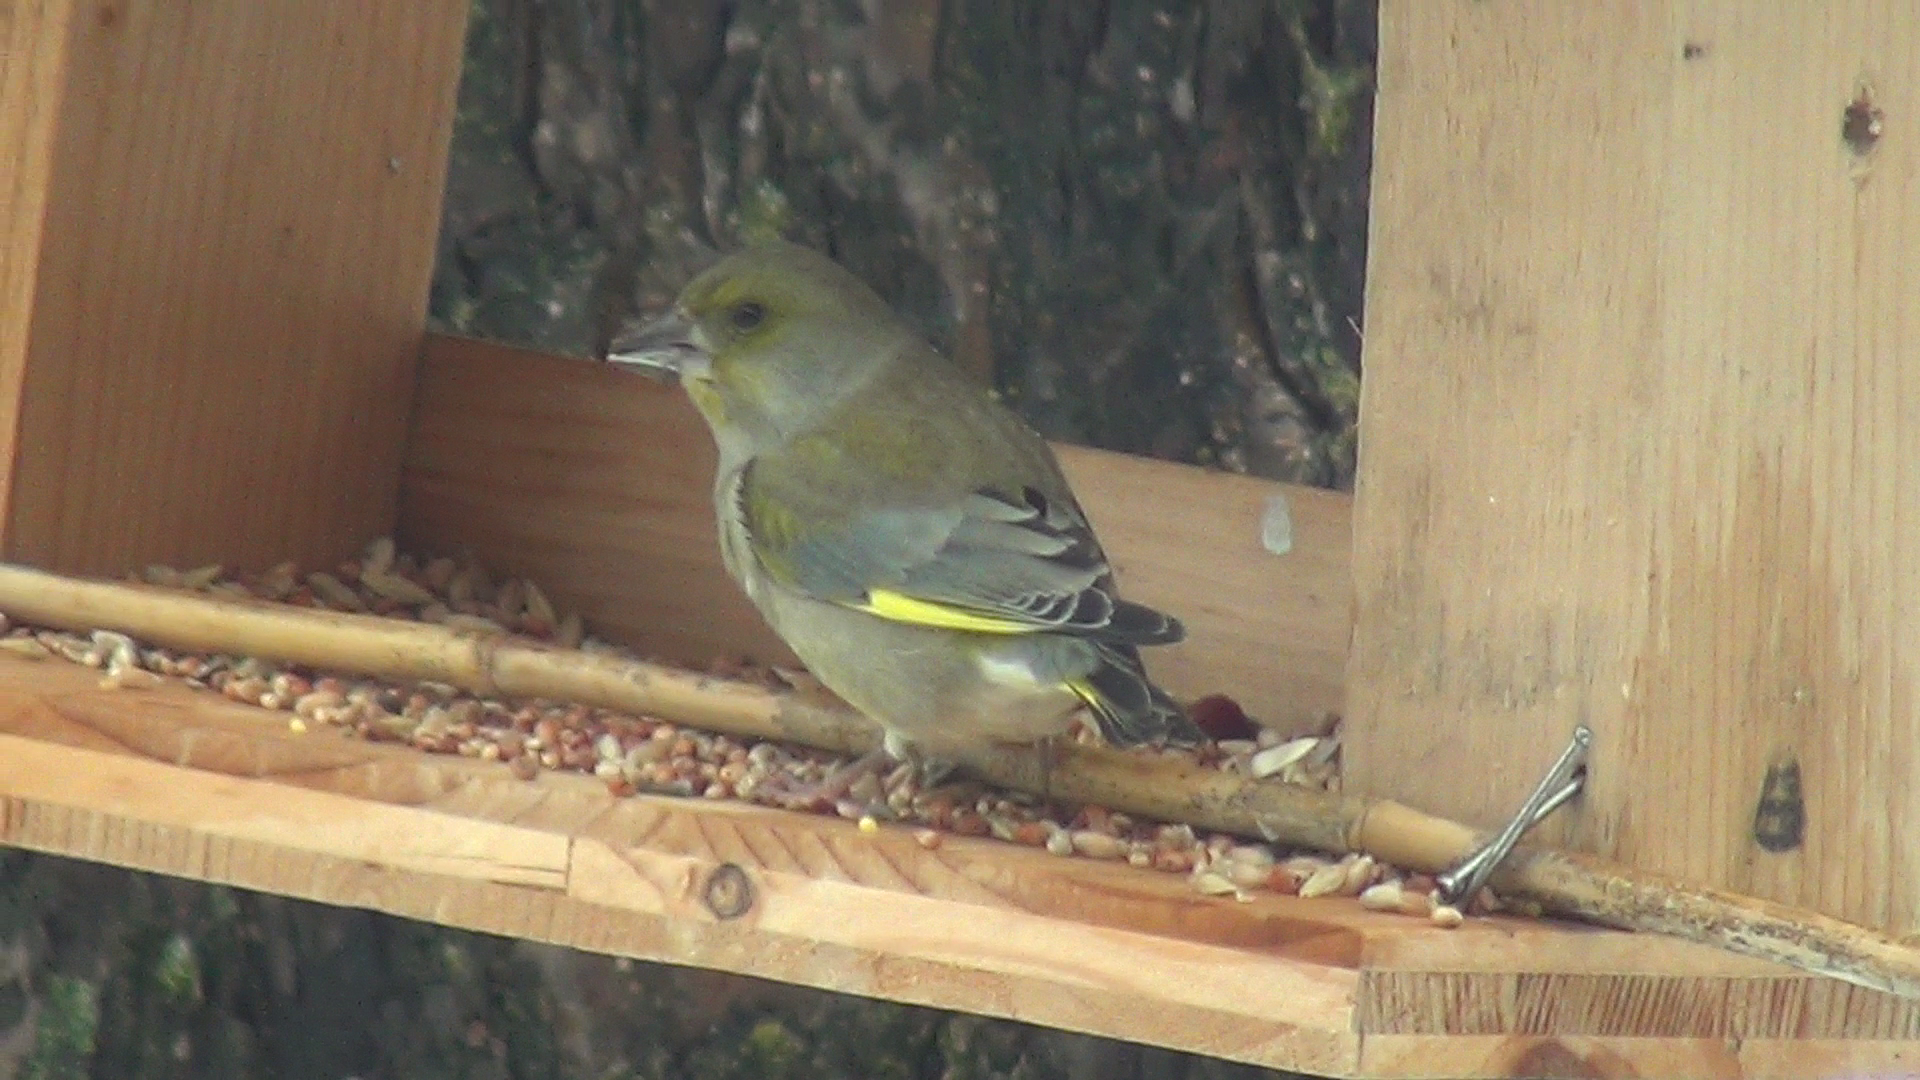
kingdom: Plantae
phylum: Tracheophyta
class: Liliopsida
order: Poales
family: Poaceae
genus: Chloris
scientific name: Chloris chloris
